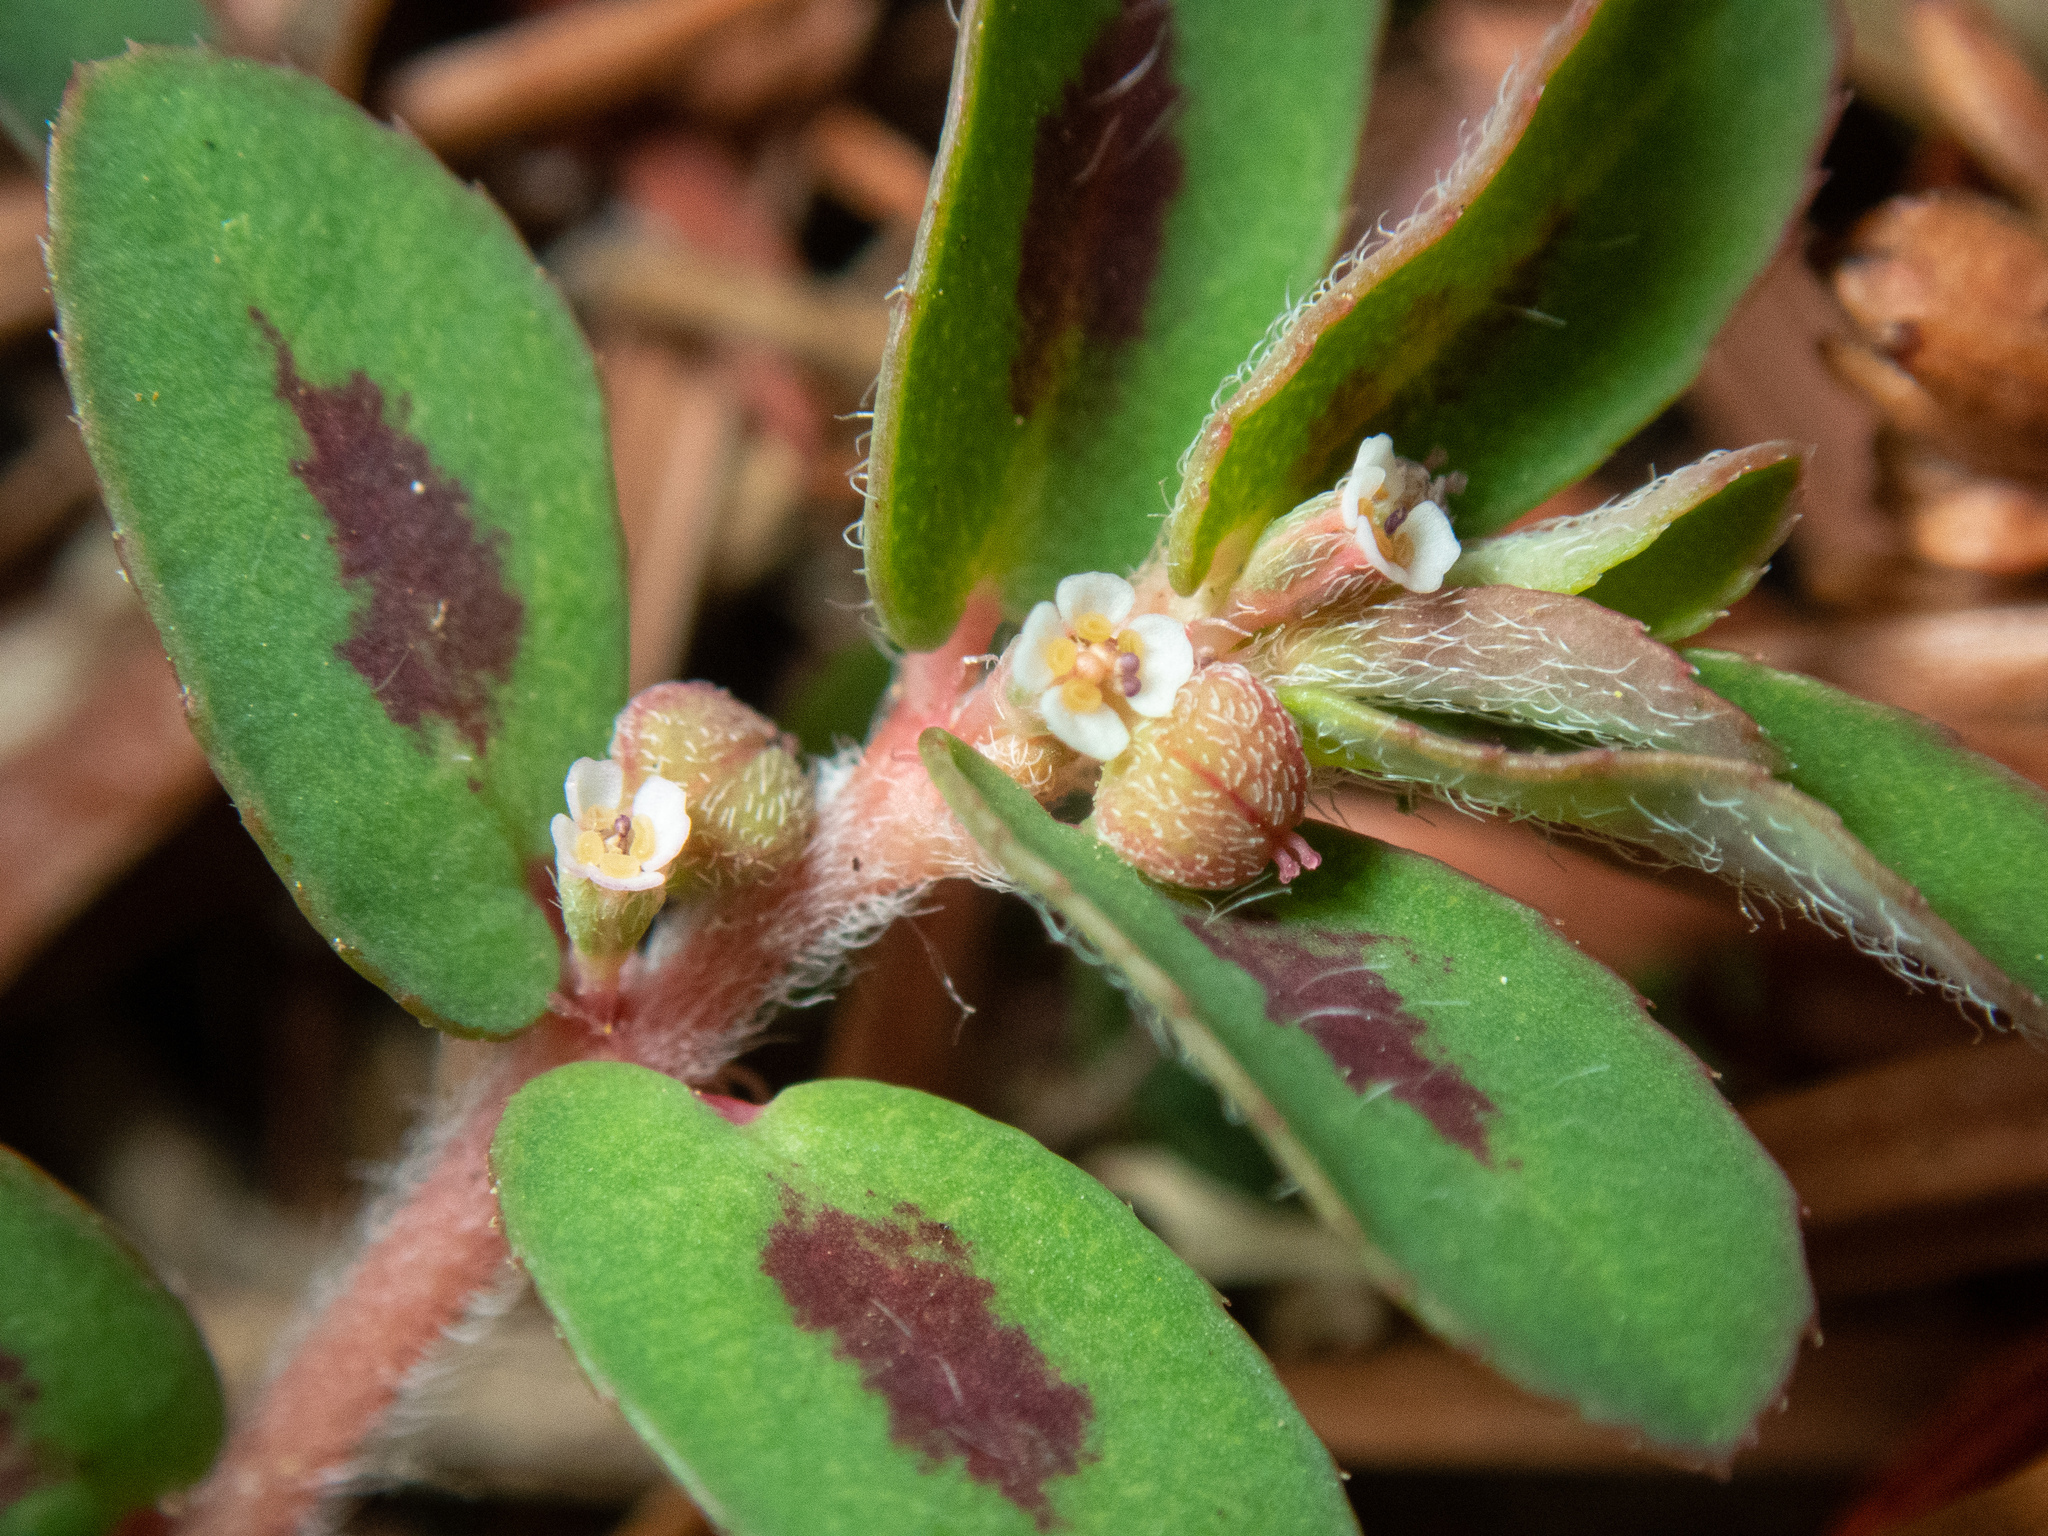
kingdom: Plantae
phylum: Tracheophyta
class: Magnoliopsida
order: Malpighiales
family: Euphorbiaceae
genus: Euphorbia
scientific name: Euphorbia maculata
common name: Spotted spurge
